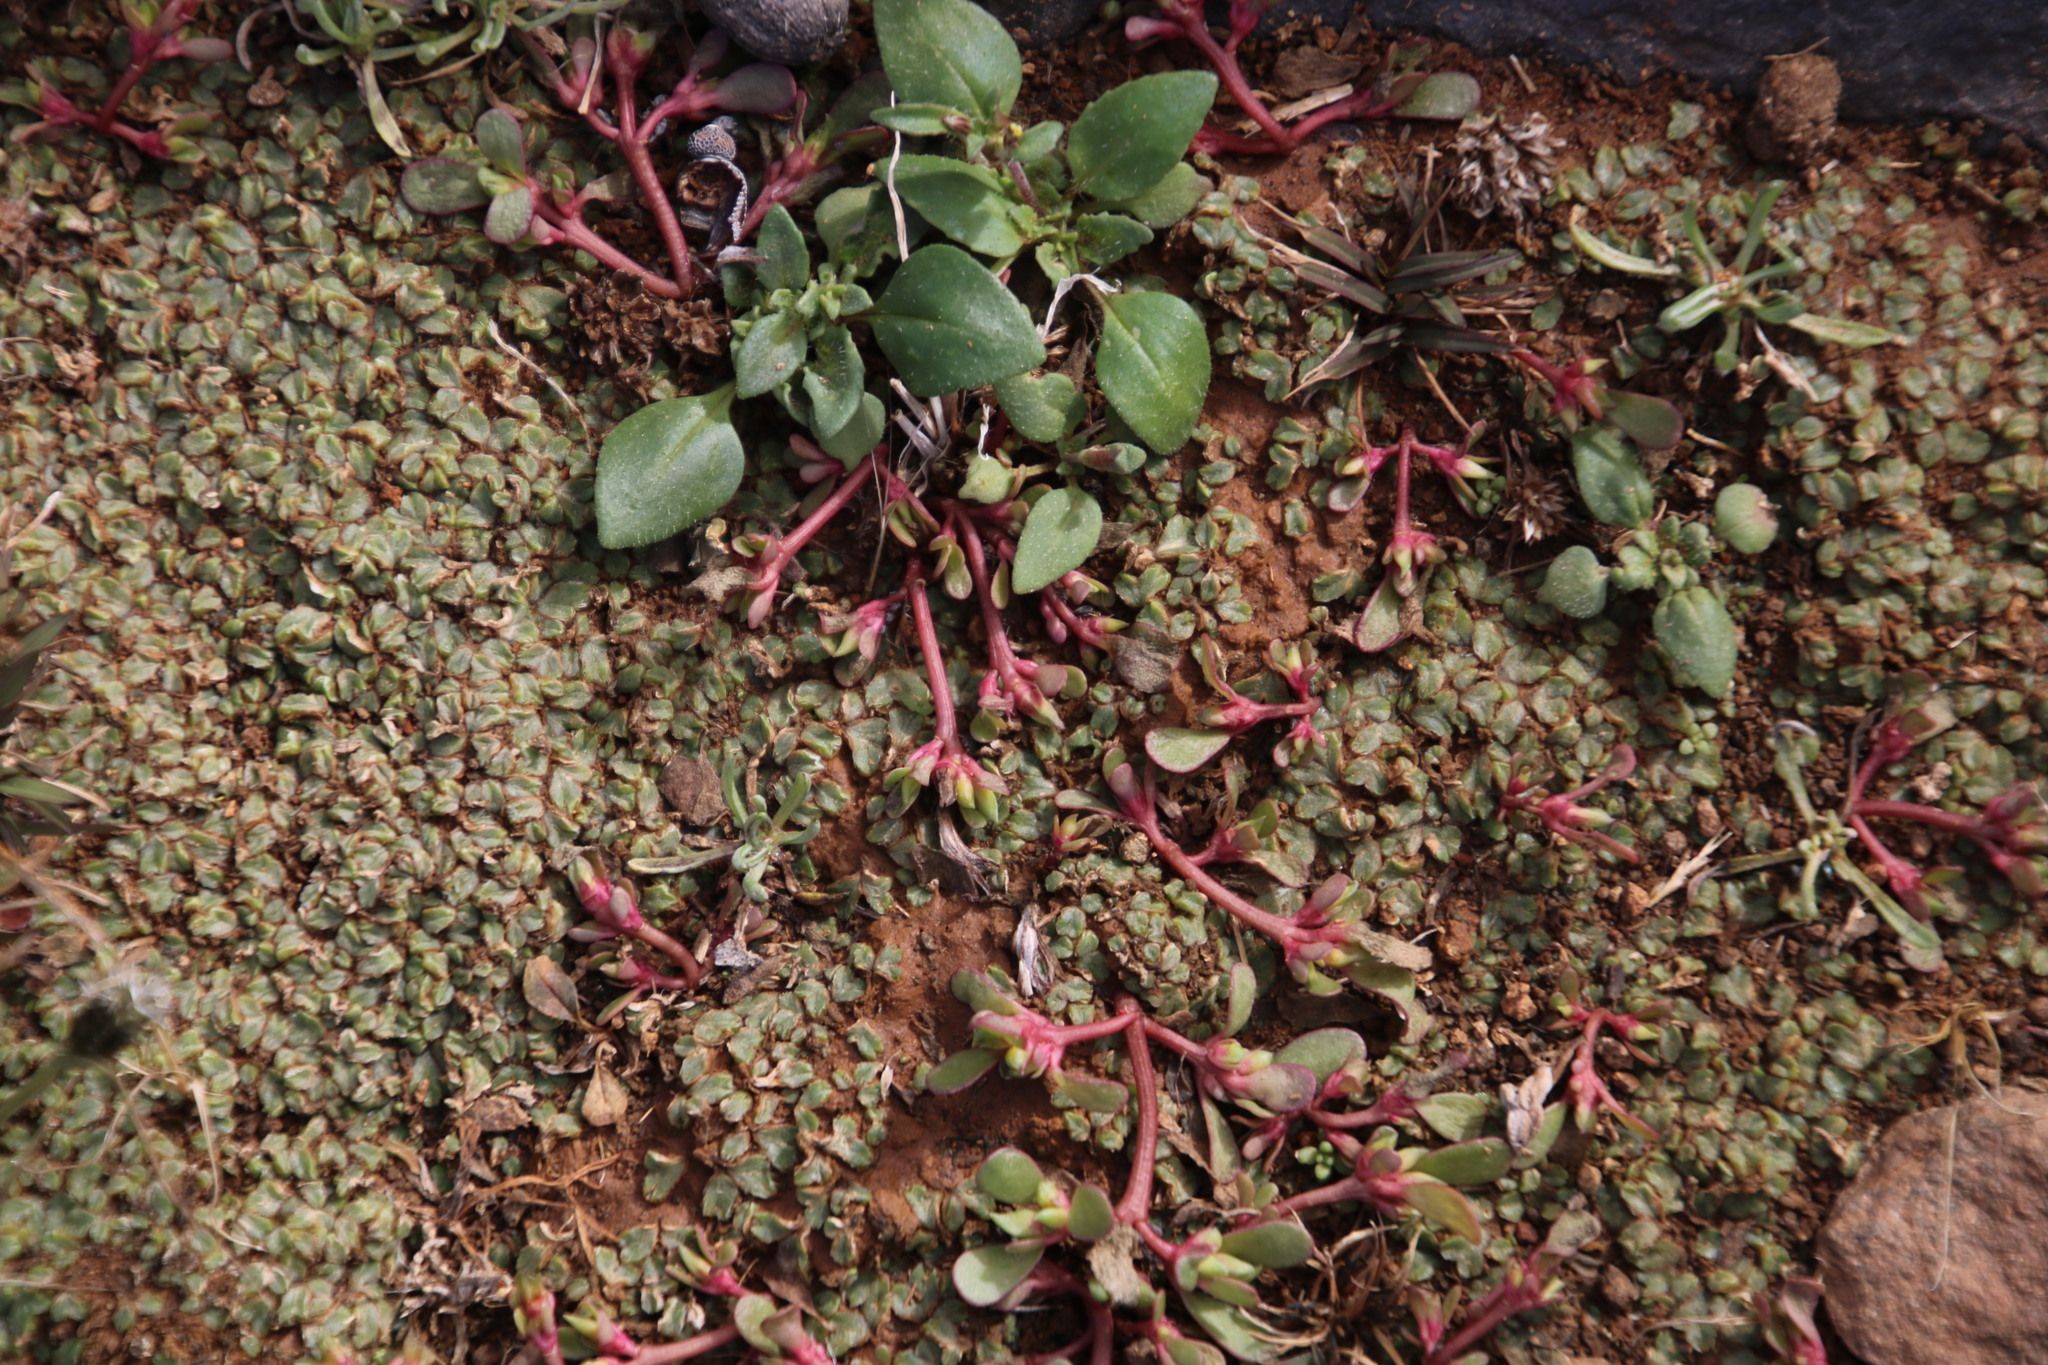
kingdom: Plantae
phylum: Tracheophyta
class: Magnoliopsida
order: Caryophyllales
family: Portulacaceae
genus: Portulaca
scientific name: Portulaca oleracea
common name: Common purslane
